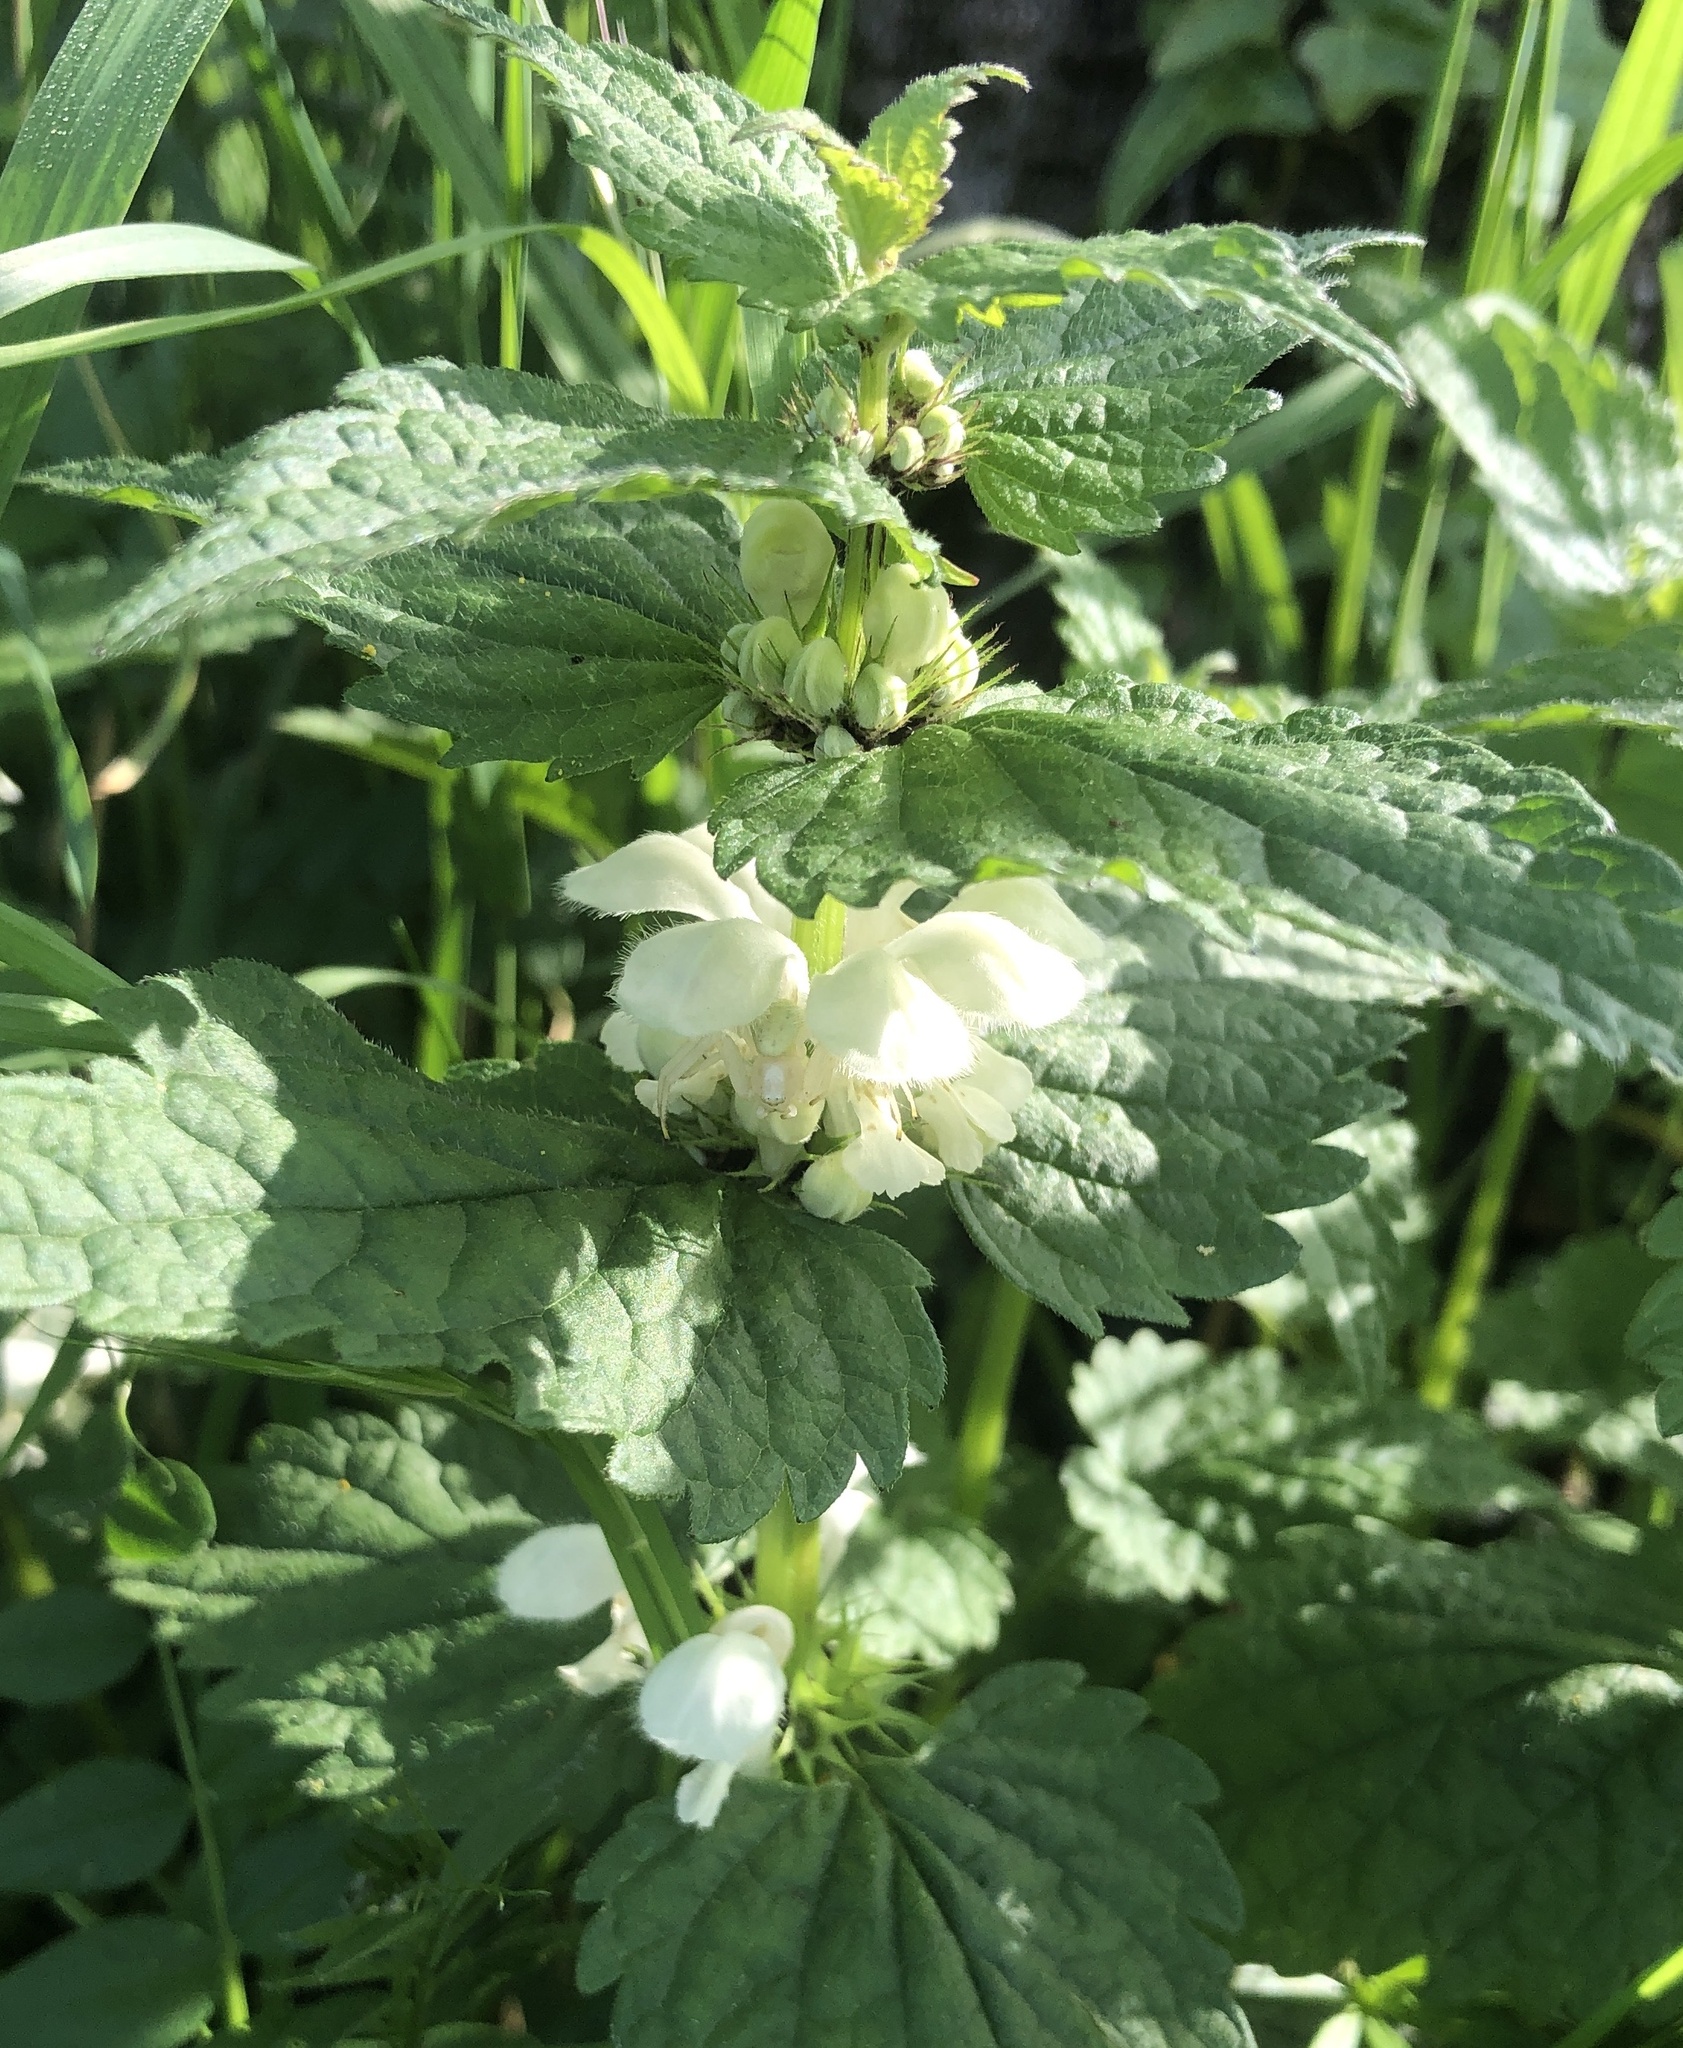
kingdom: Plantae
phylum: Tracheophyta
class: Magnoliopsida
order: Lamiales
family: Lamiaceae
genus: Lamium
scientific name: Lamium album
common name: White dead-nettle
